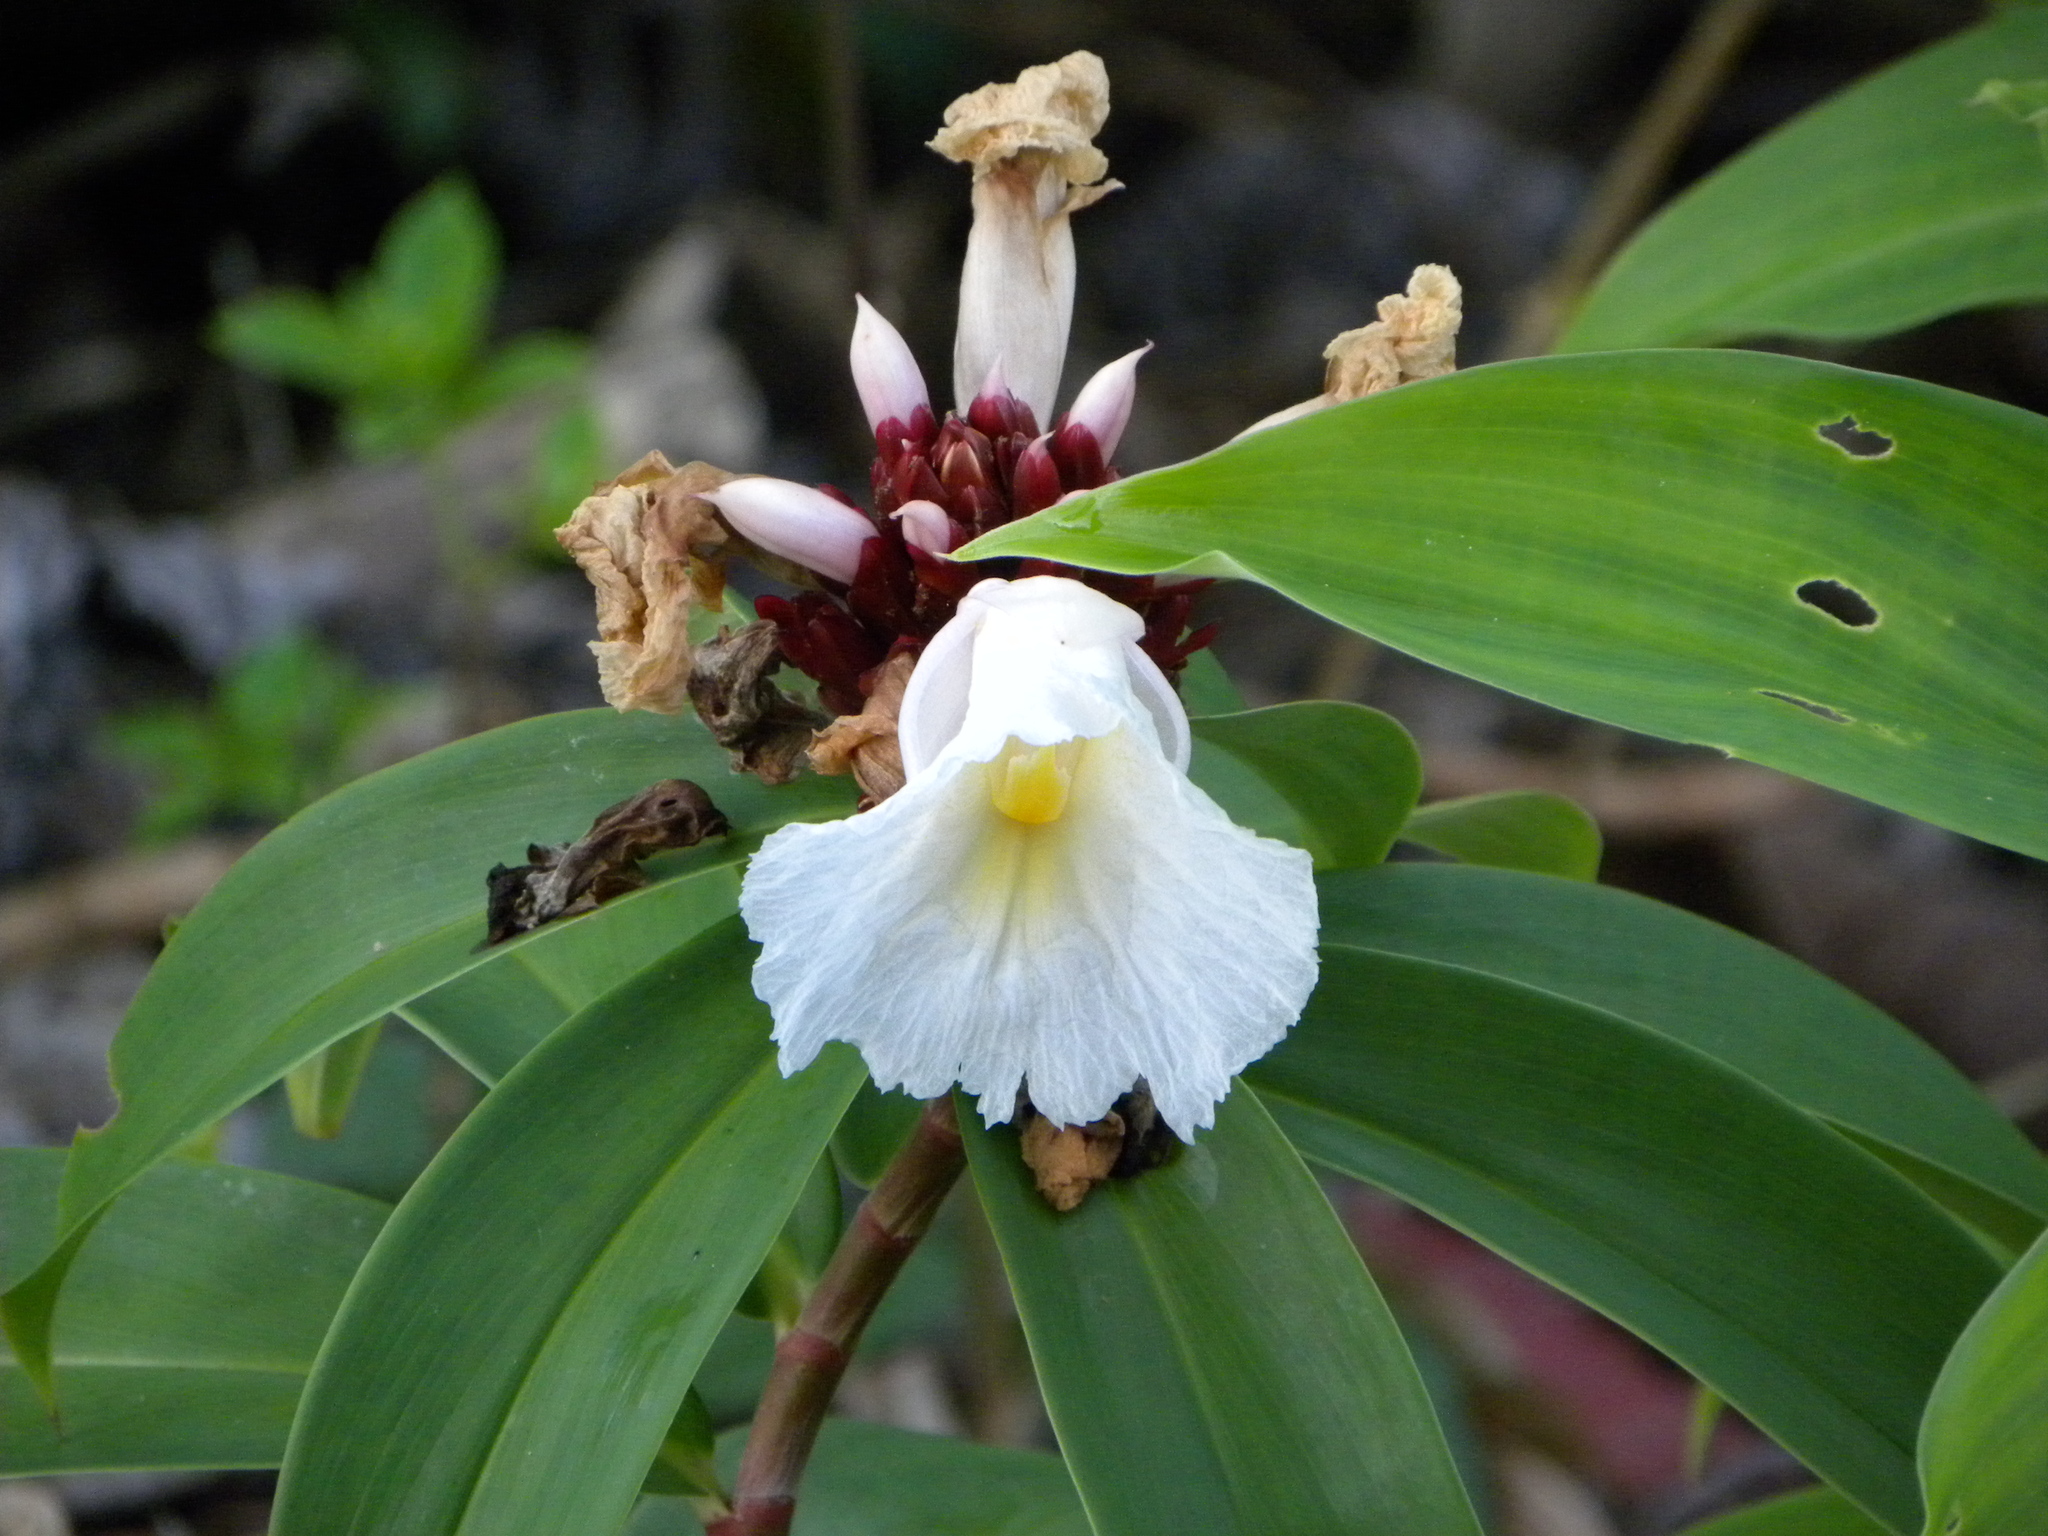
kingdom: Plantae
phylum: Tracheophyta
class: Liliopsida
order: Zingiberales
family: Costaceae
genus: Hellenia
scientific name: Hellenia speciosa
